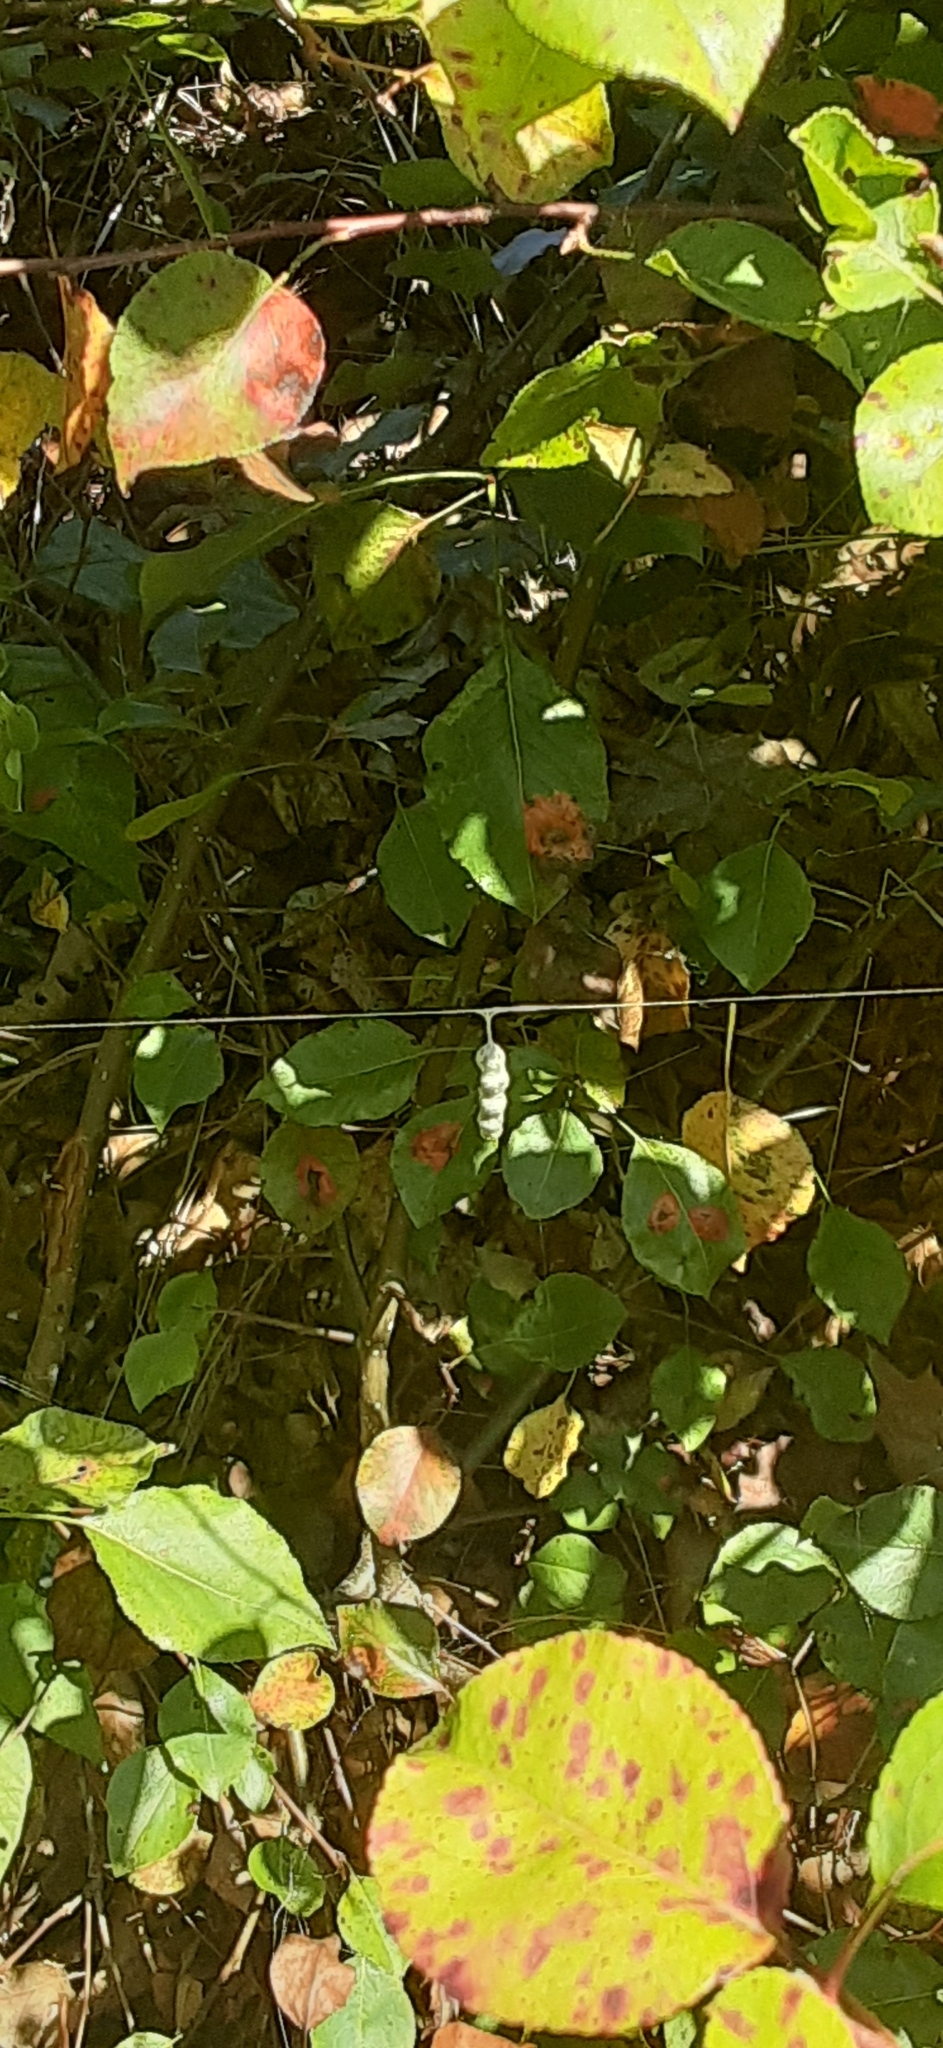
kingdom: Animalia
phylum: Arthropoda
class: Arachnida
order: Araneae
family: Araneidae
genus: Mecynogea
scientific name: Mecynogea lemniscata
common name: Orb weavers
